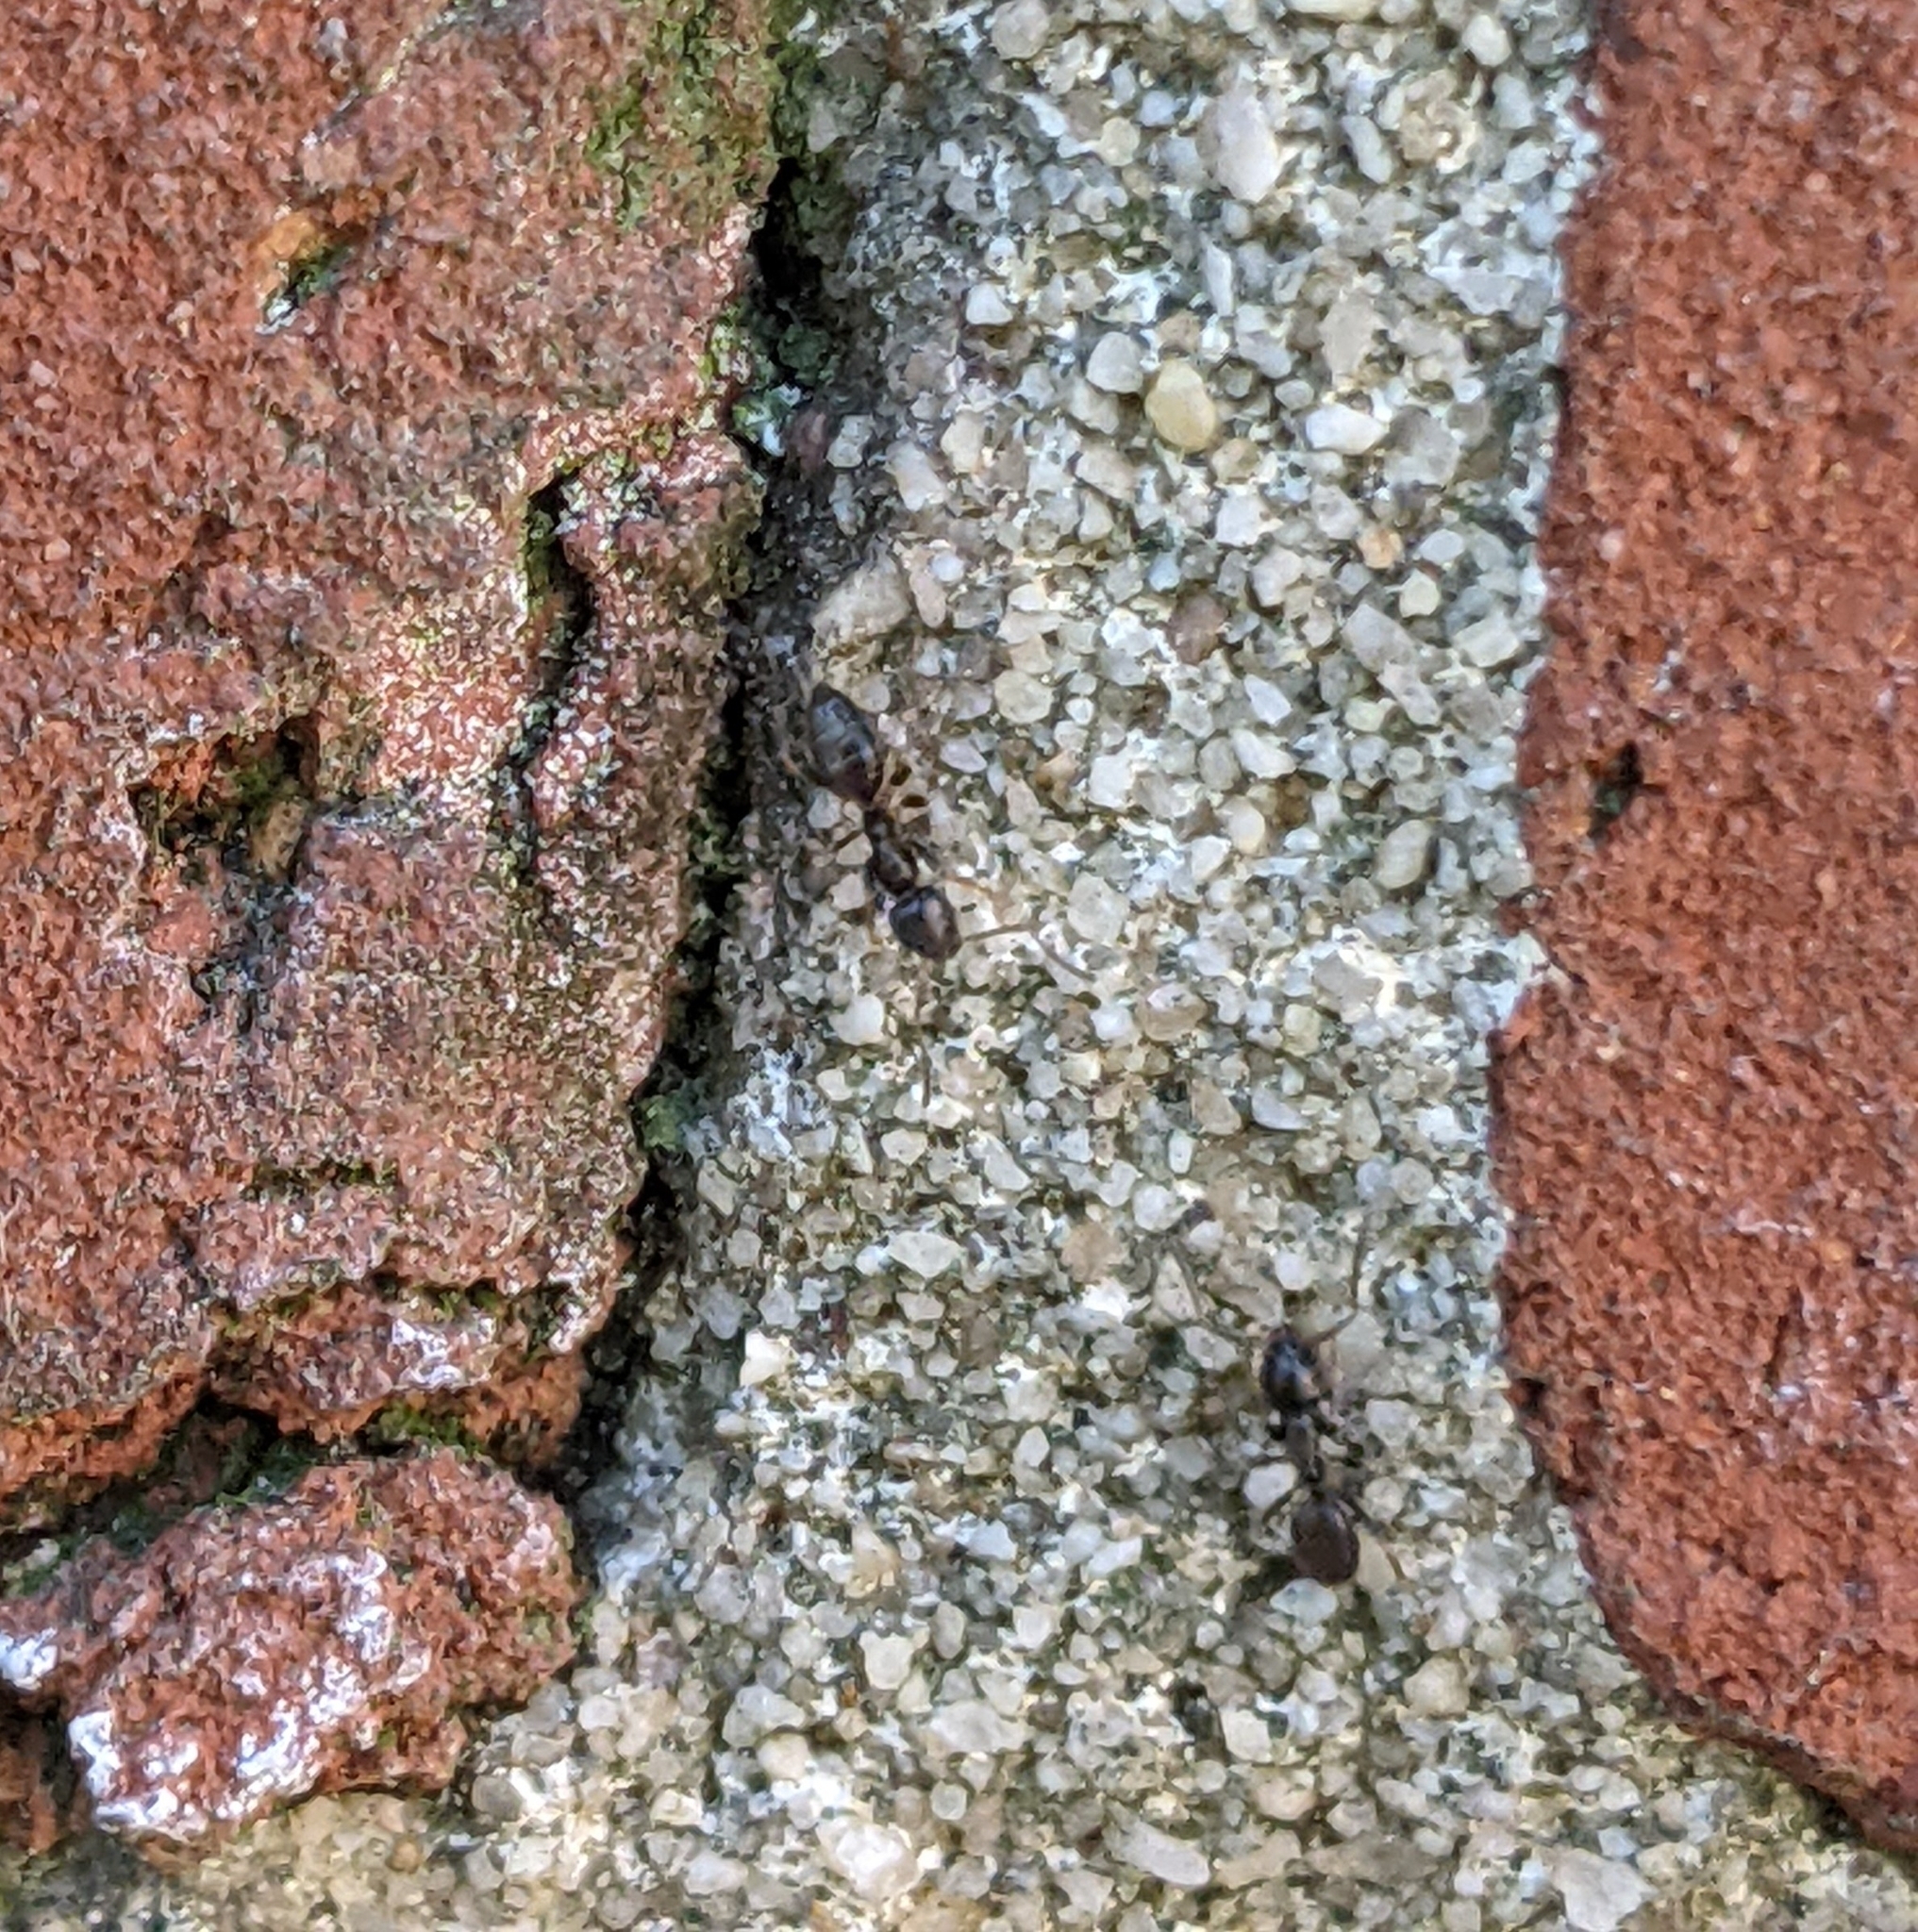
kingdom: Animalia
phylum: Arthropoda
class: Insecta
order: Hymenoptera
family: Formicidae
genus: Tapinoma
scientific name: Tapinoma sessile
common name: Odorous house ant
